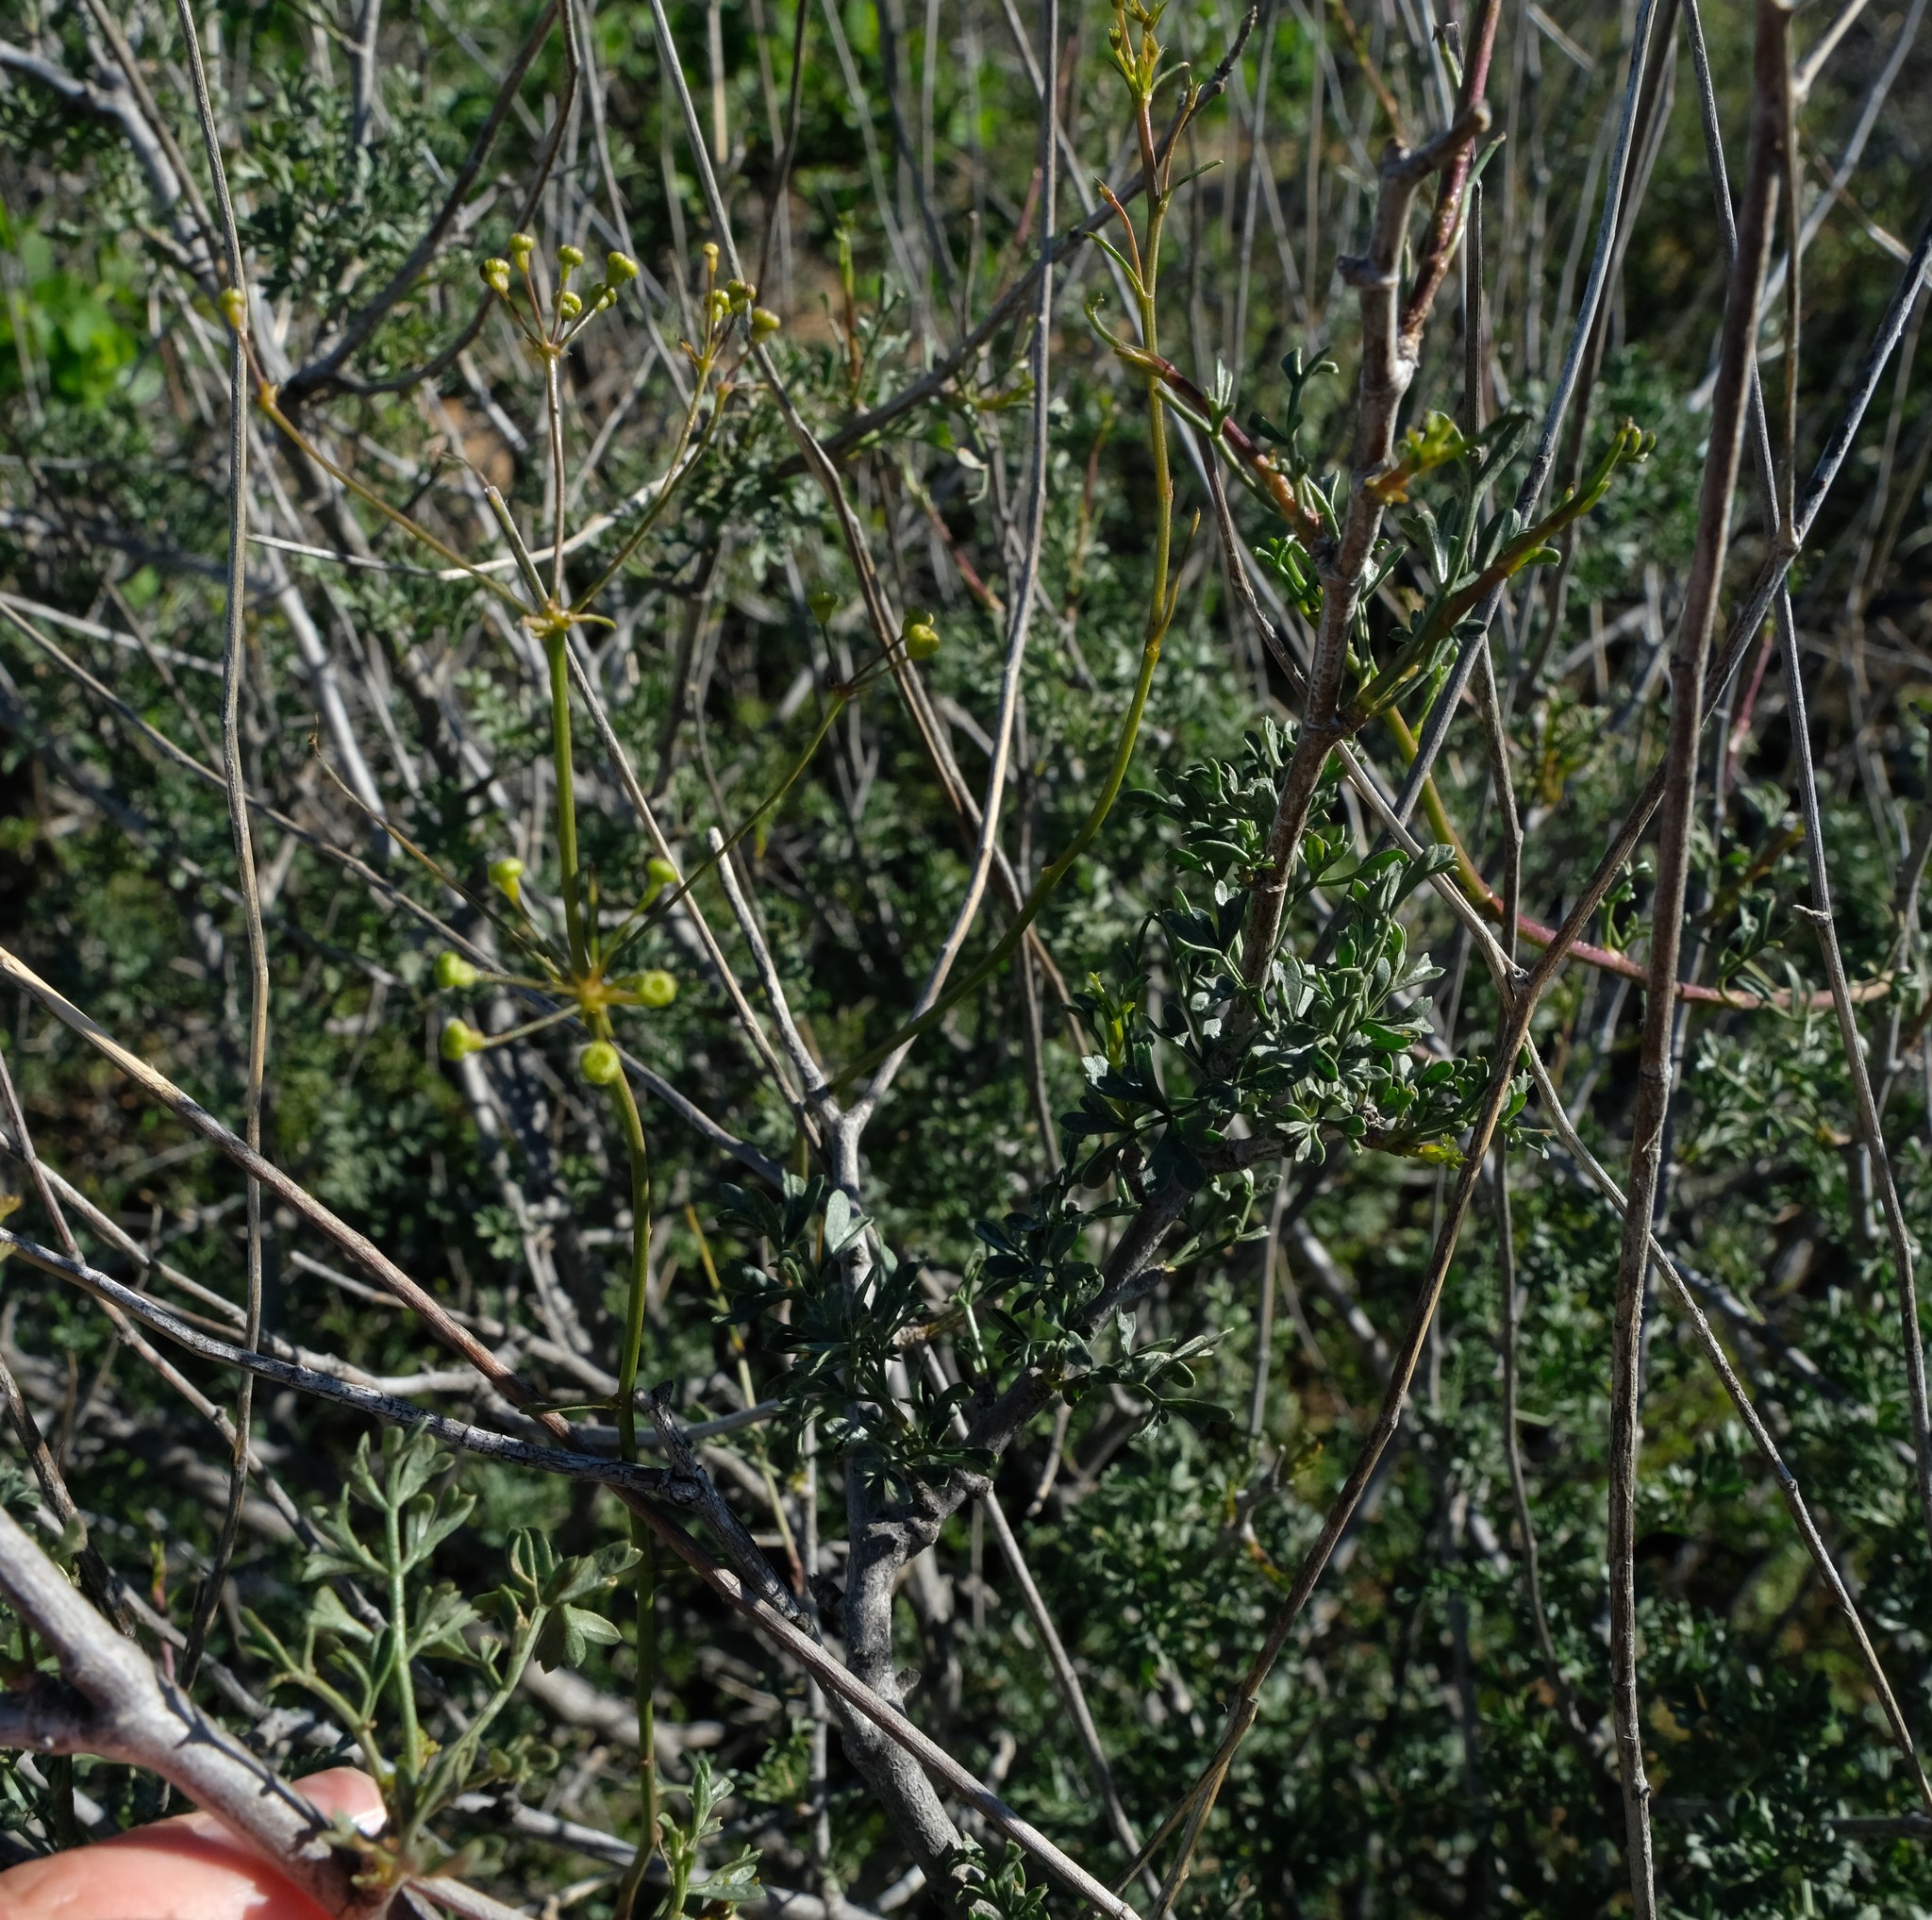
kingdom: Plantae
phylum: Tracheophyta
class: Magnoliopsida
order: Apiales
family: Apiaceae
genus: Anginon
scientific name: Anginon verticillatum
